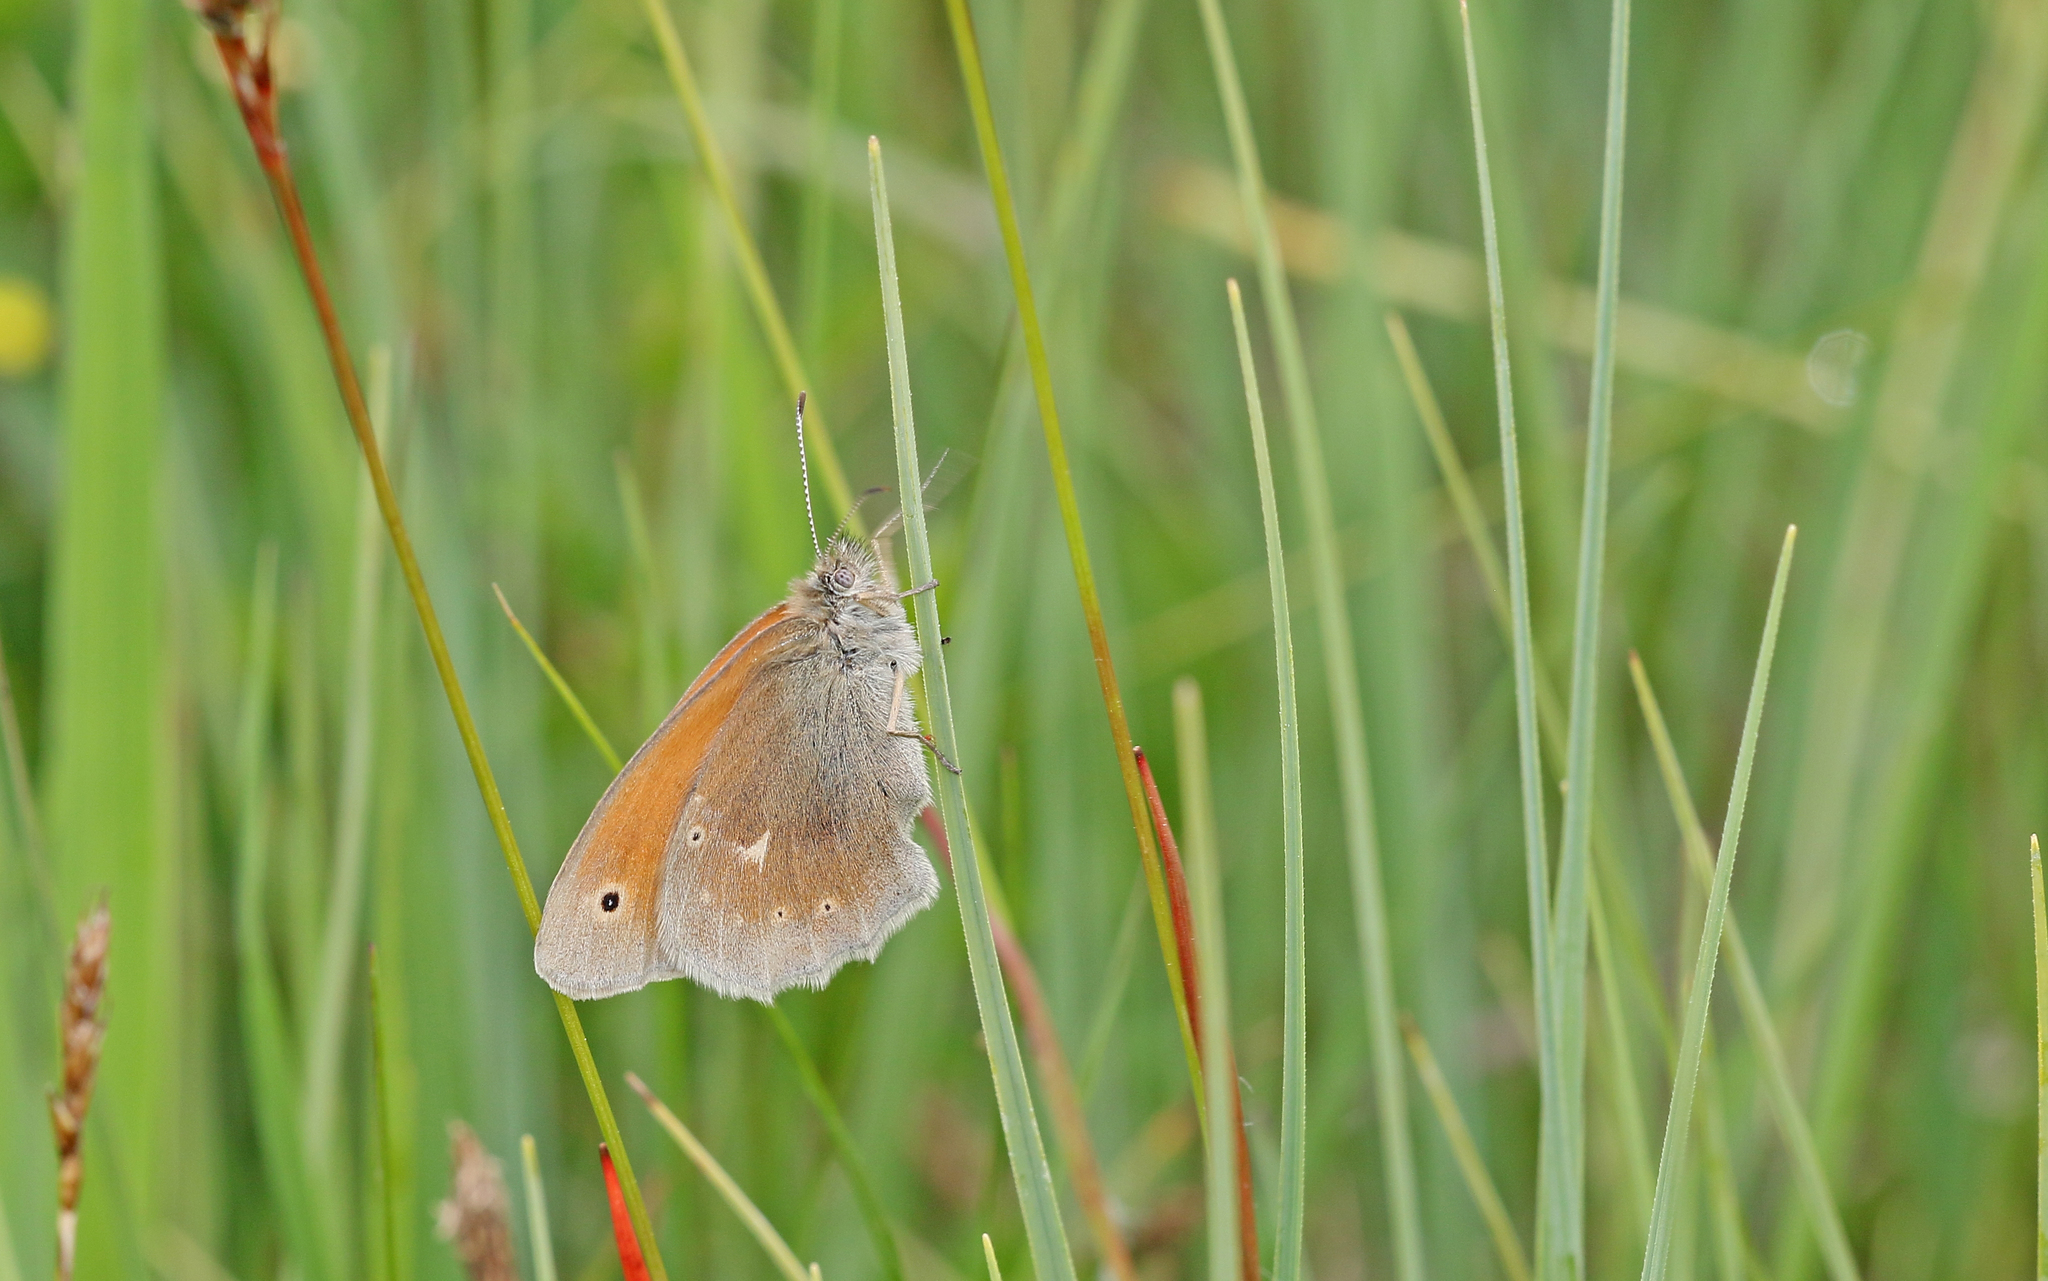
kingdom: Animalia
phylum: Arthropoda
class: Insecta
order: Lepidoptera
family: Nymphalidae
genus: Coenonympha
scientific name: Coenonympha tullia
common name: Large heath
